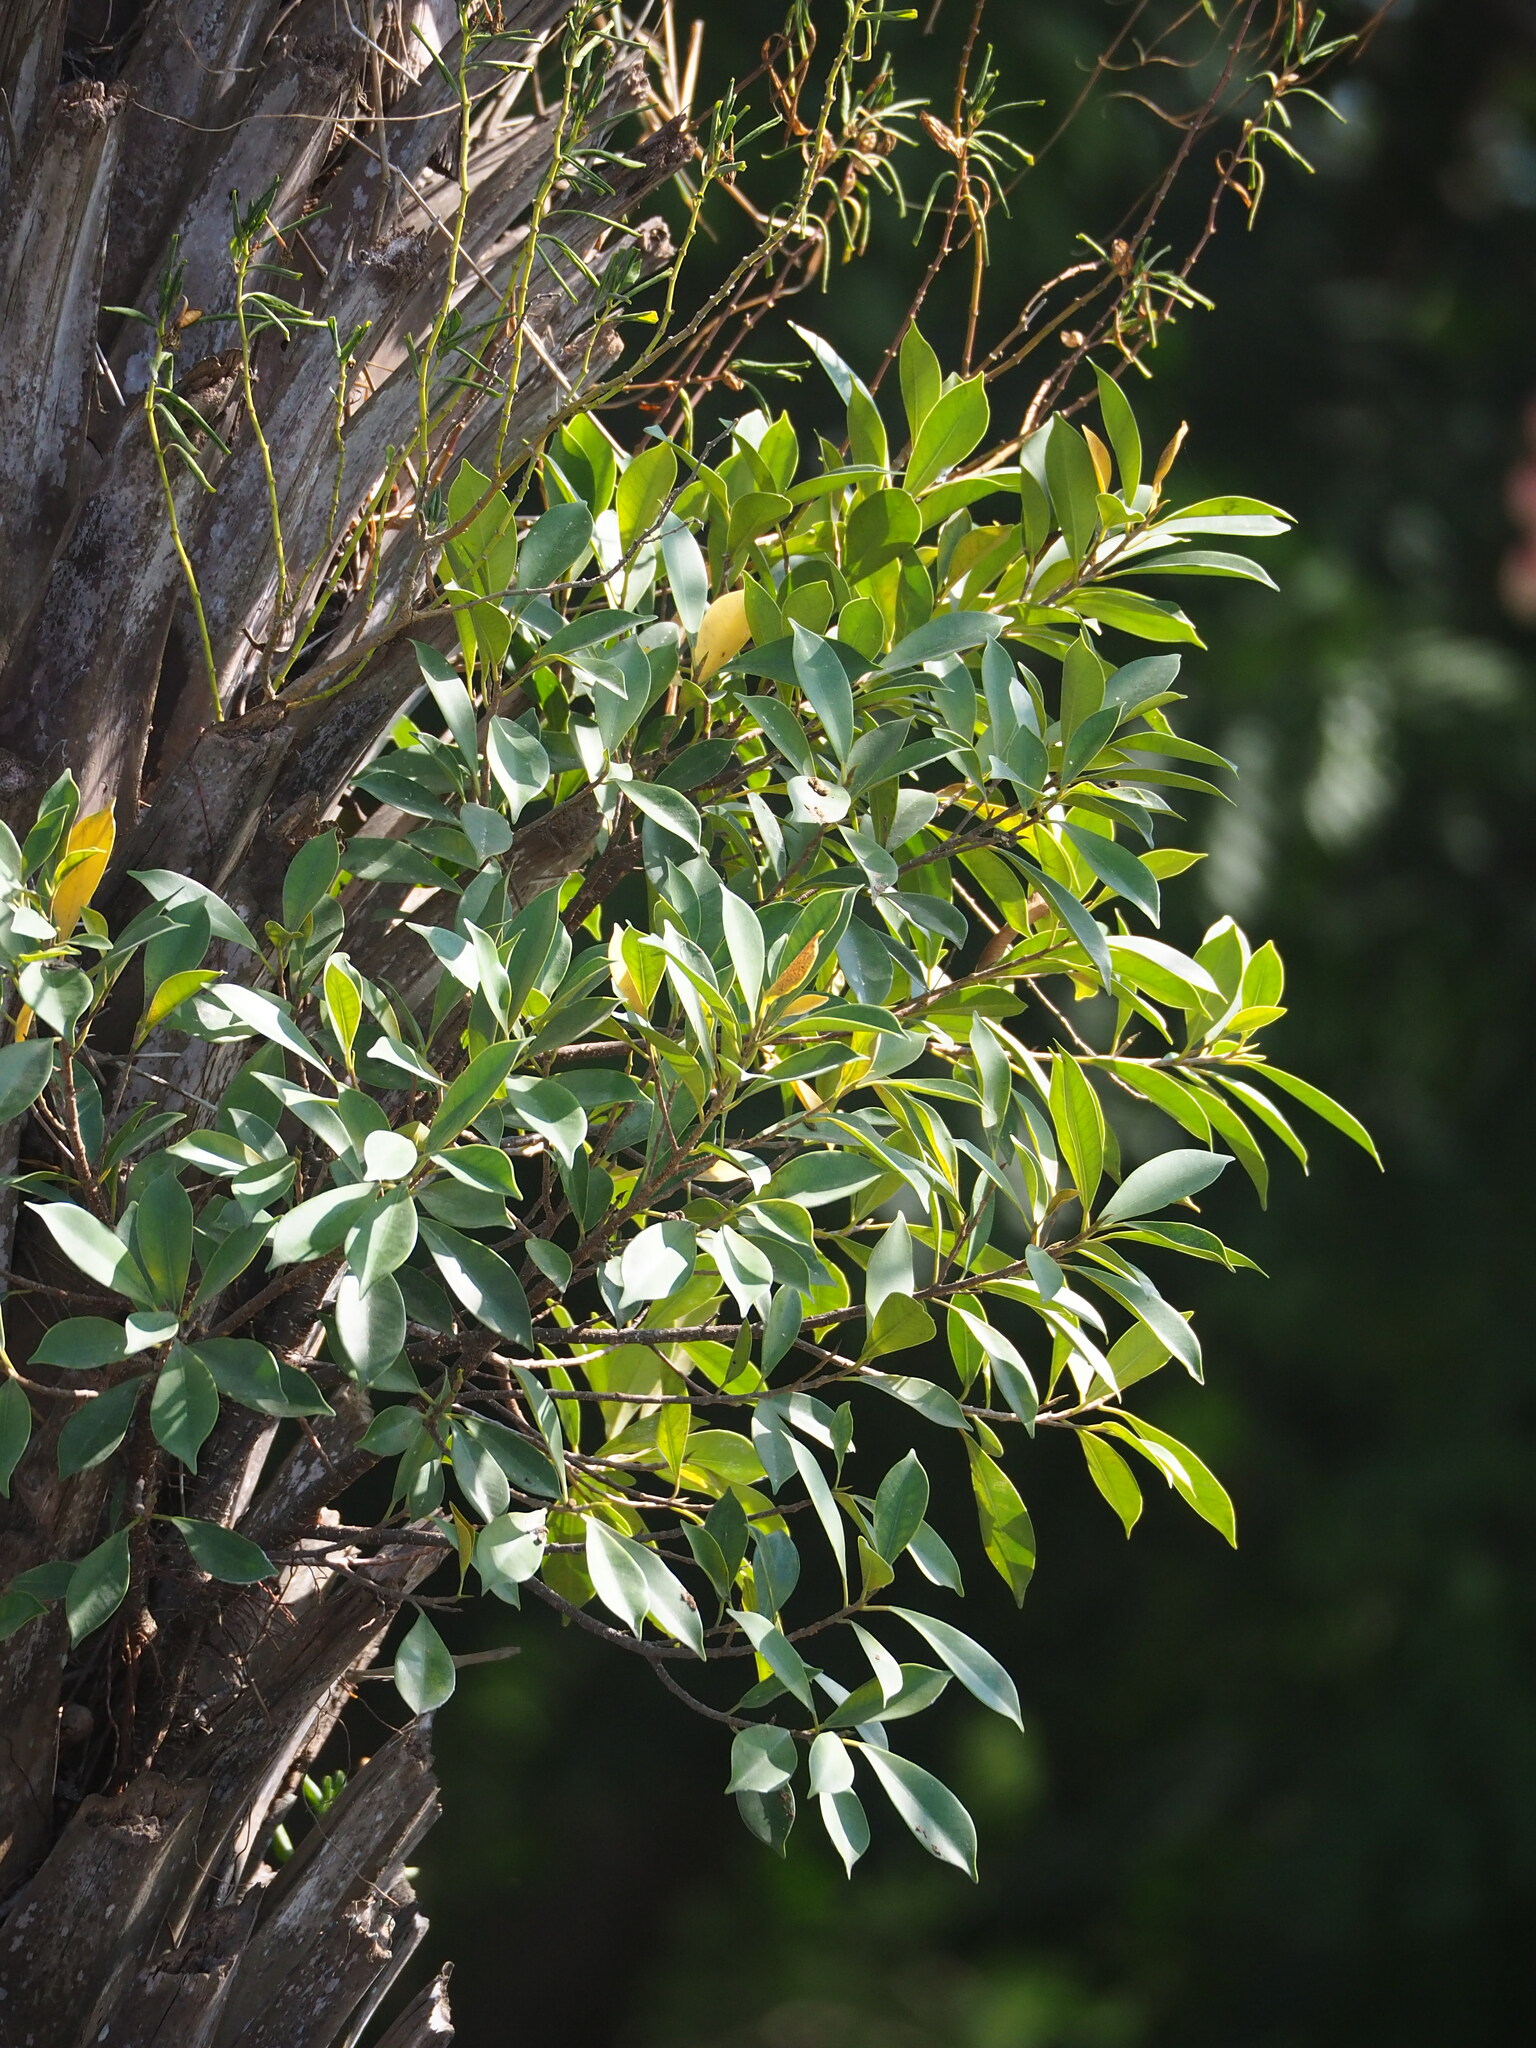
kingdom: Plantae
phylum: Tracheophyta
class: Magnoliopsida
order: Rosales
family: Moraceae
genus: Ficus
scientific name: Ficus microcarpa
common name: Chinese banyan
